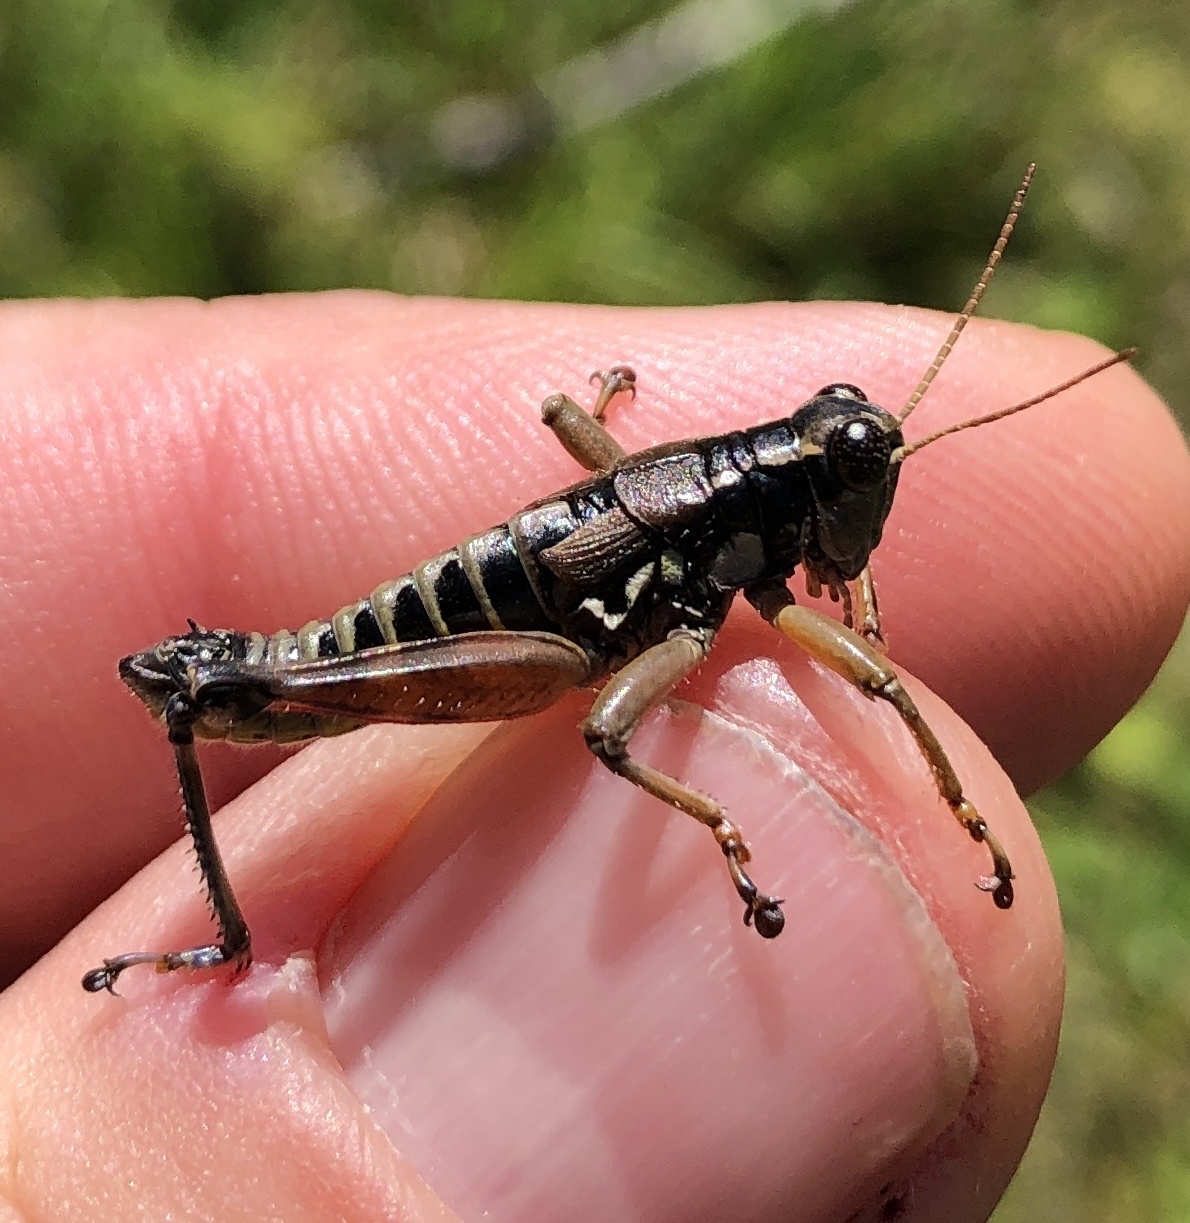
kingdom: Animalia
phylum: Arthropoda
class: Insecta
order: Orthoptera
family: Acrididae
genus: Podisma
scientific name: Podisma pedestris
